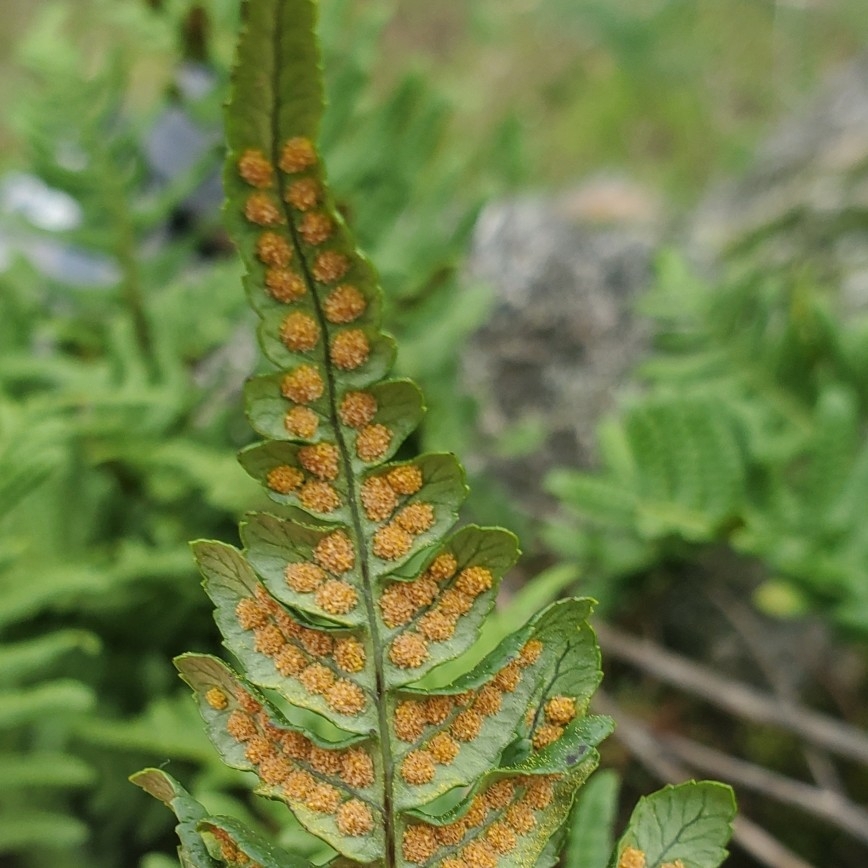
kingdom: Plantae
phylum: Tracheophyta
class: Polypodiopsida
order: Polypodiales
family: Polypodiaceae
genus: Polypodium
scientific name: Polypodium glycyrrhiza
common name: Licorice fern
